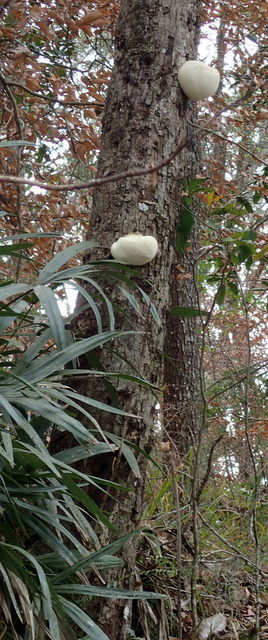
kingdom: Fungi
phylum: Basidiomycota
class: Agaricomycetes
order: Russulales
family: Hericiaceae
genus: Hericium
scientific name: Hericium erinaceus
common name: Bearded tooth
